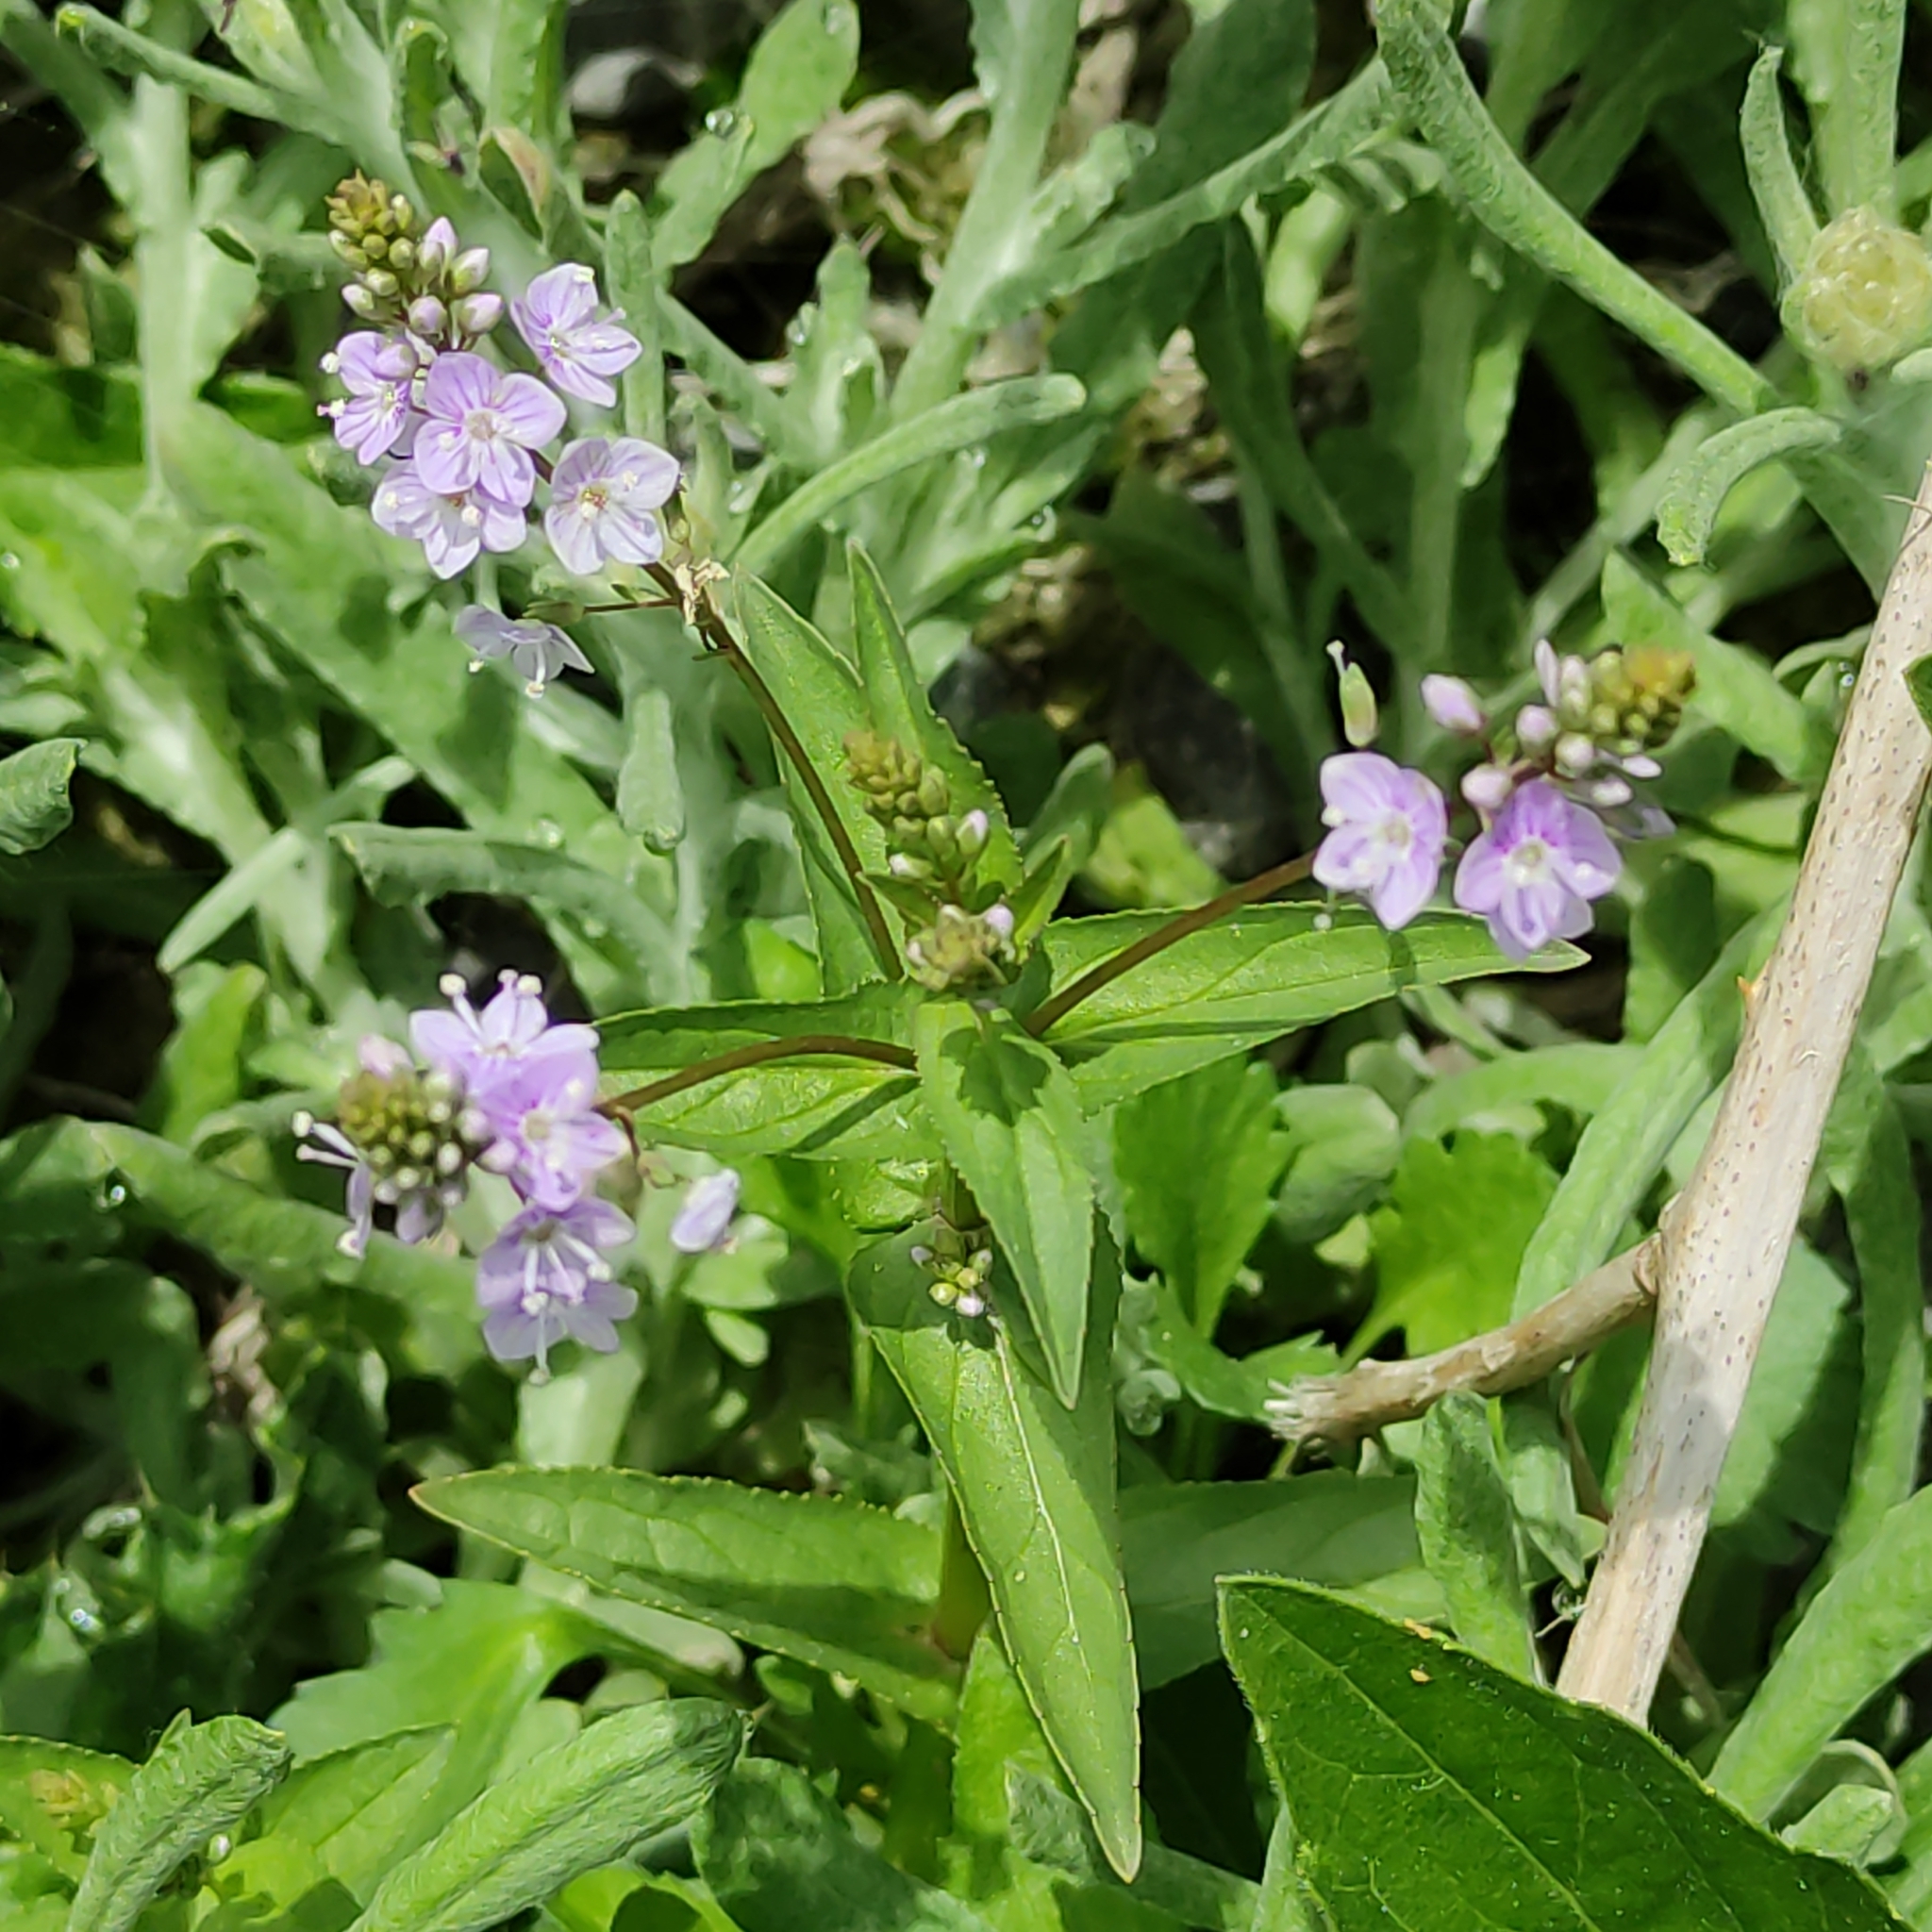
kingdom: Plantae
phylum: Tracheophyta
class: Magnoliopsida
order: Lamiales
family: Plantaginaceae
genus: Veronica
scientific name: Veronica anagallis-aquatica
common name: Water speedwell
